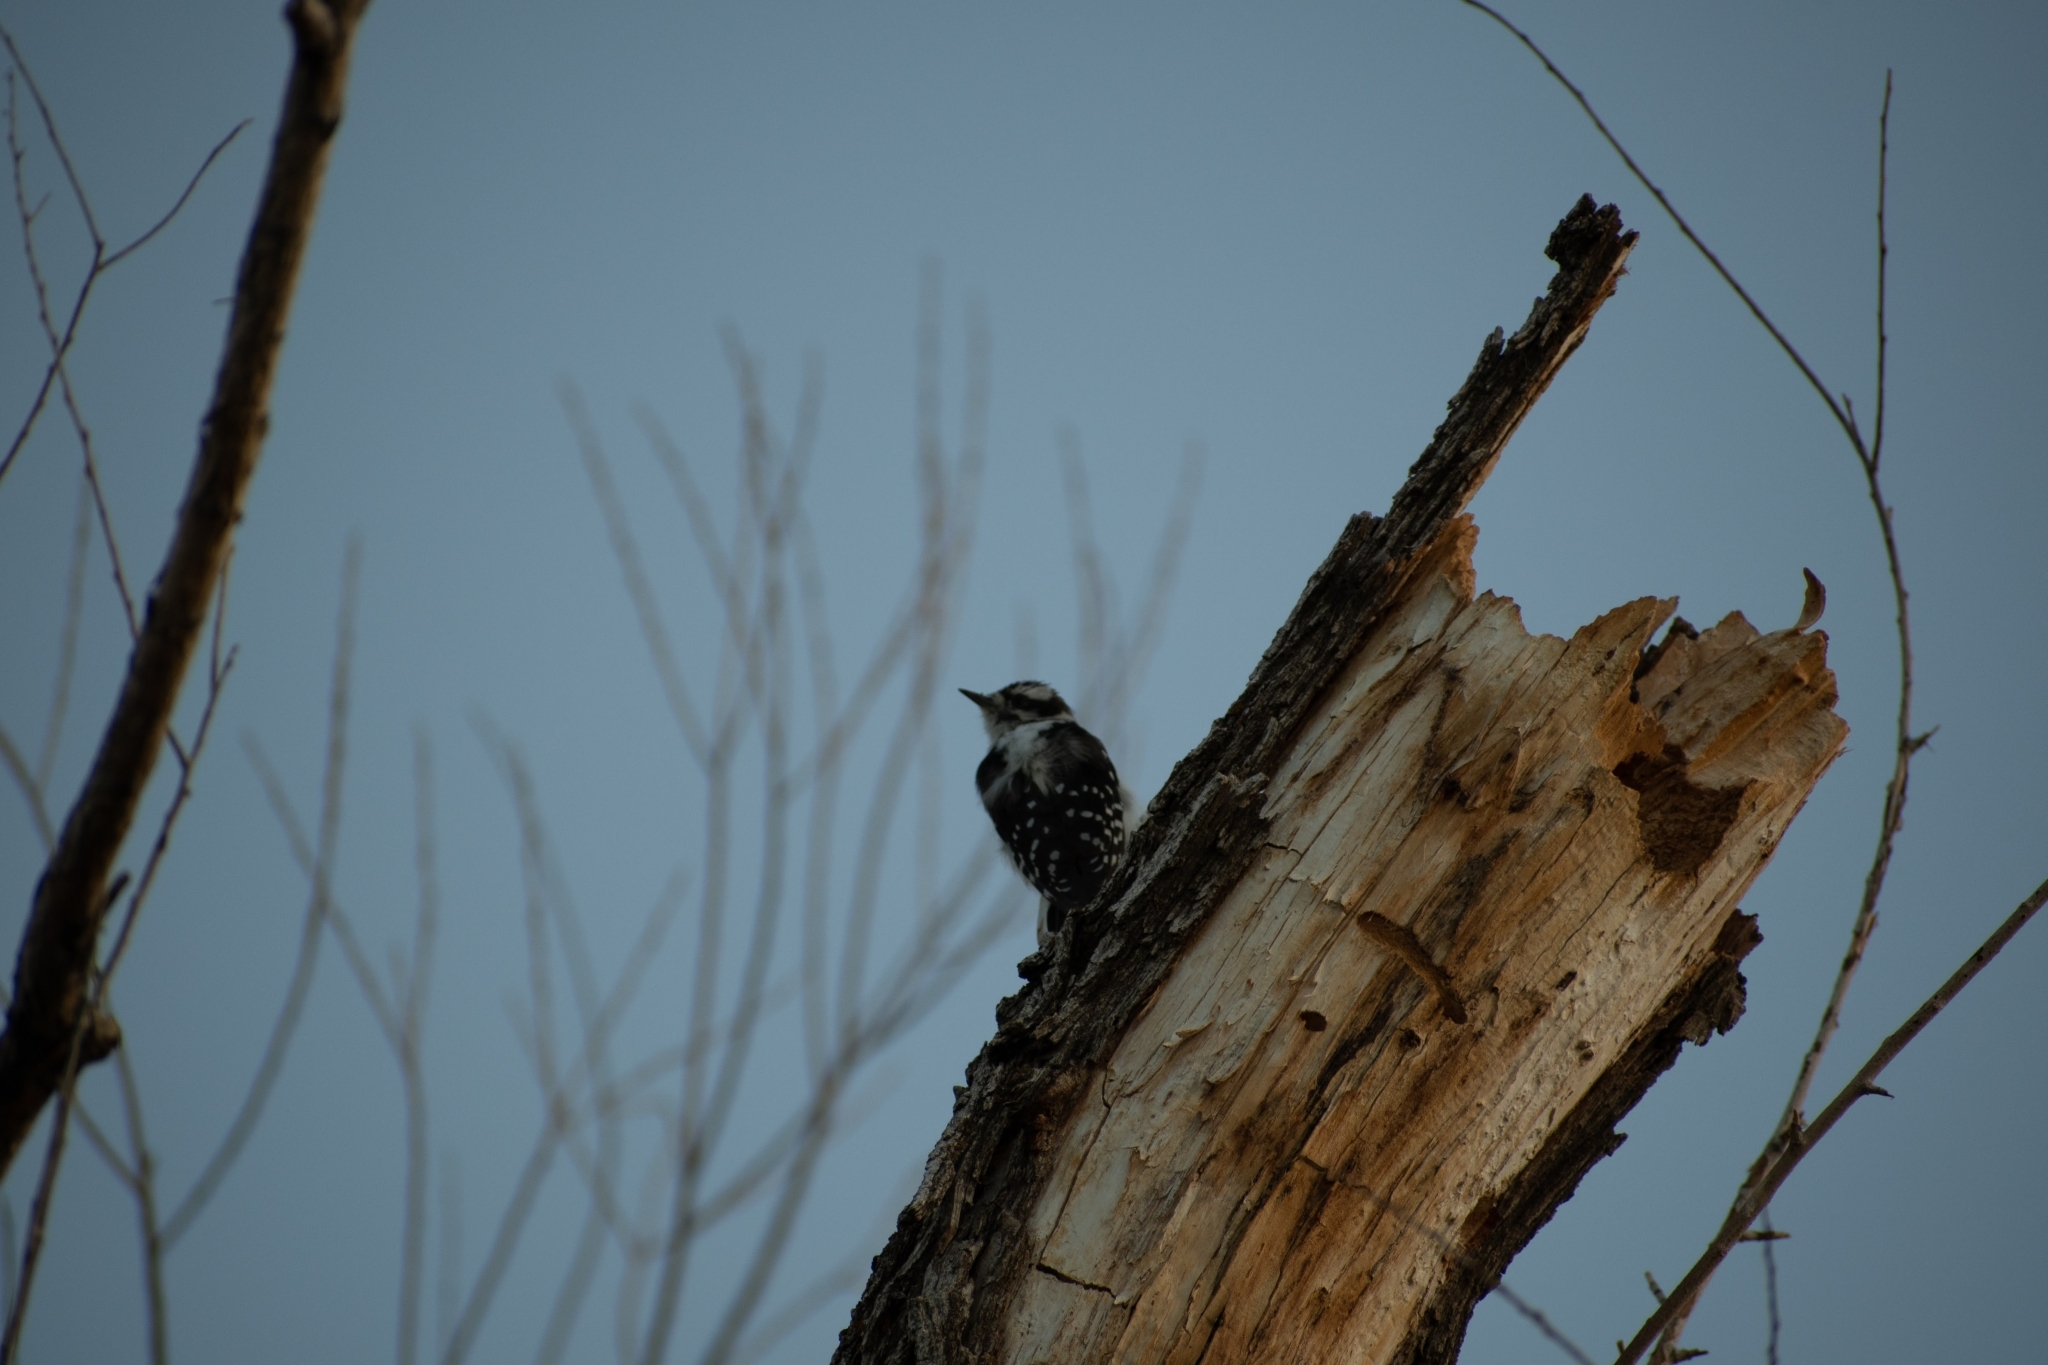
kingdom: Animalia
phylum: Chordata
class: Aves
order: Piciformes
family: Picidae
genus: Dryobates
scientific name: Dryobates pubescens
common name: Downy woodpecker
